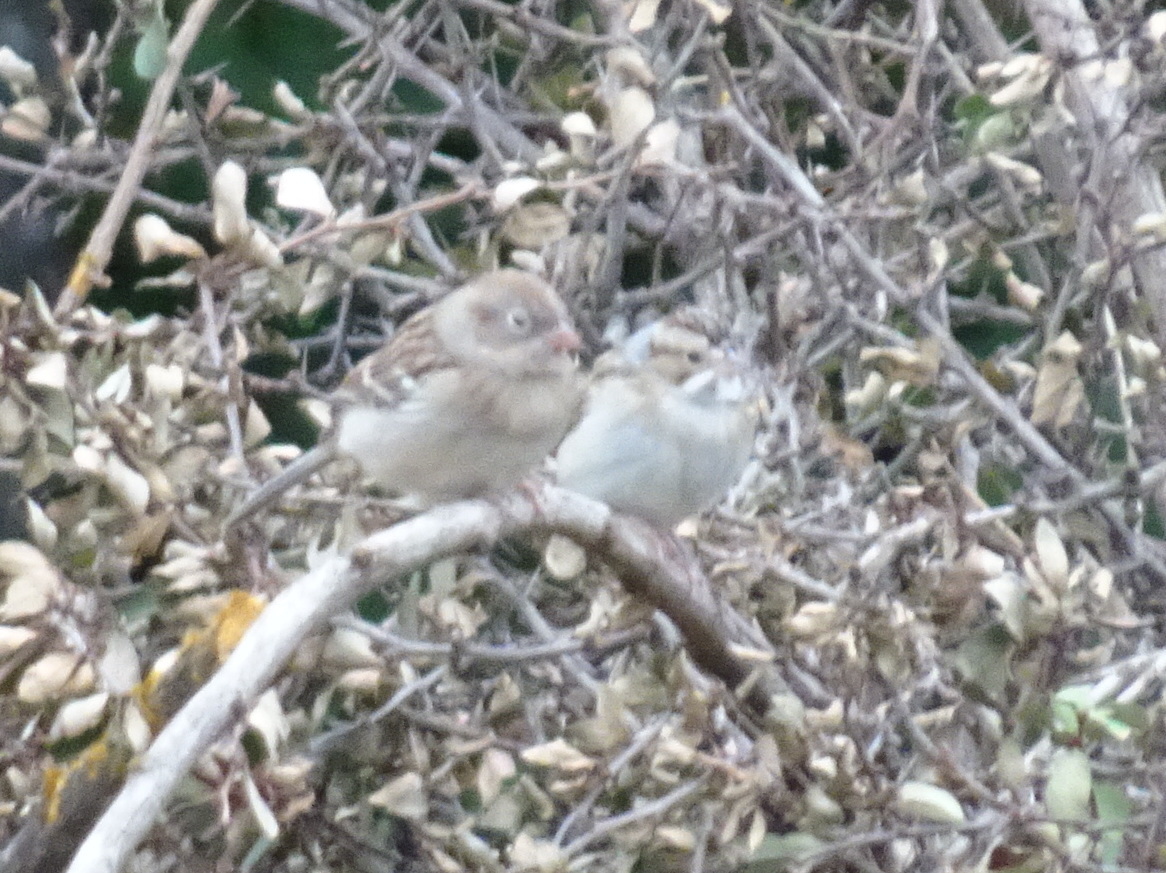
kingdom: Animalia
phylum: Chordata
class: Aves
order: Passeriformes
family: Passerellidae
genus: Spizella
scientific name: Spizella pallida
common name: Clay-colored sparrow
